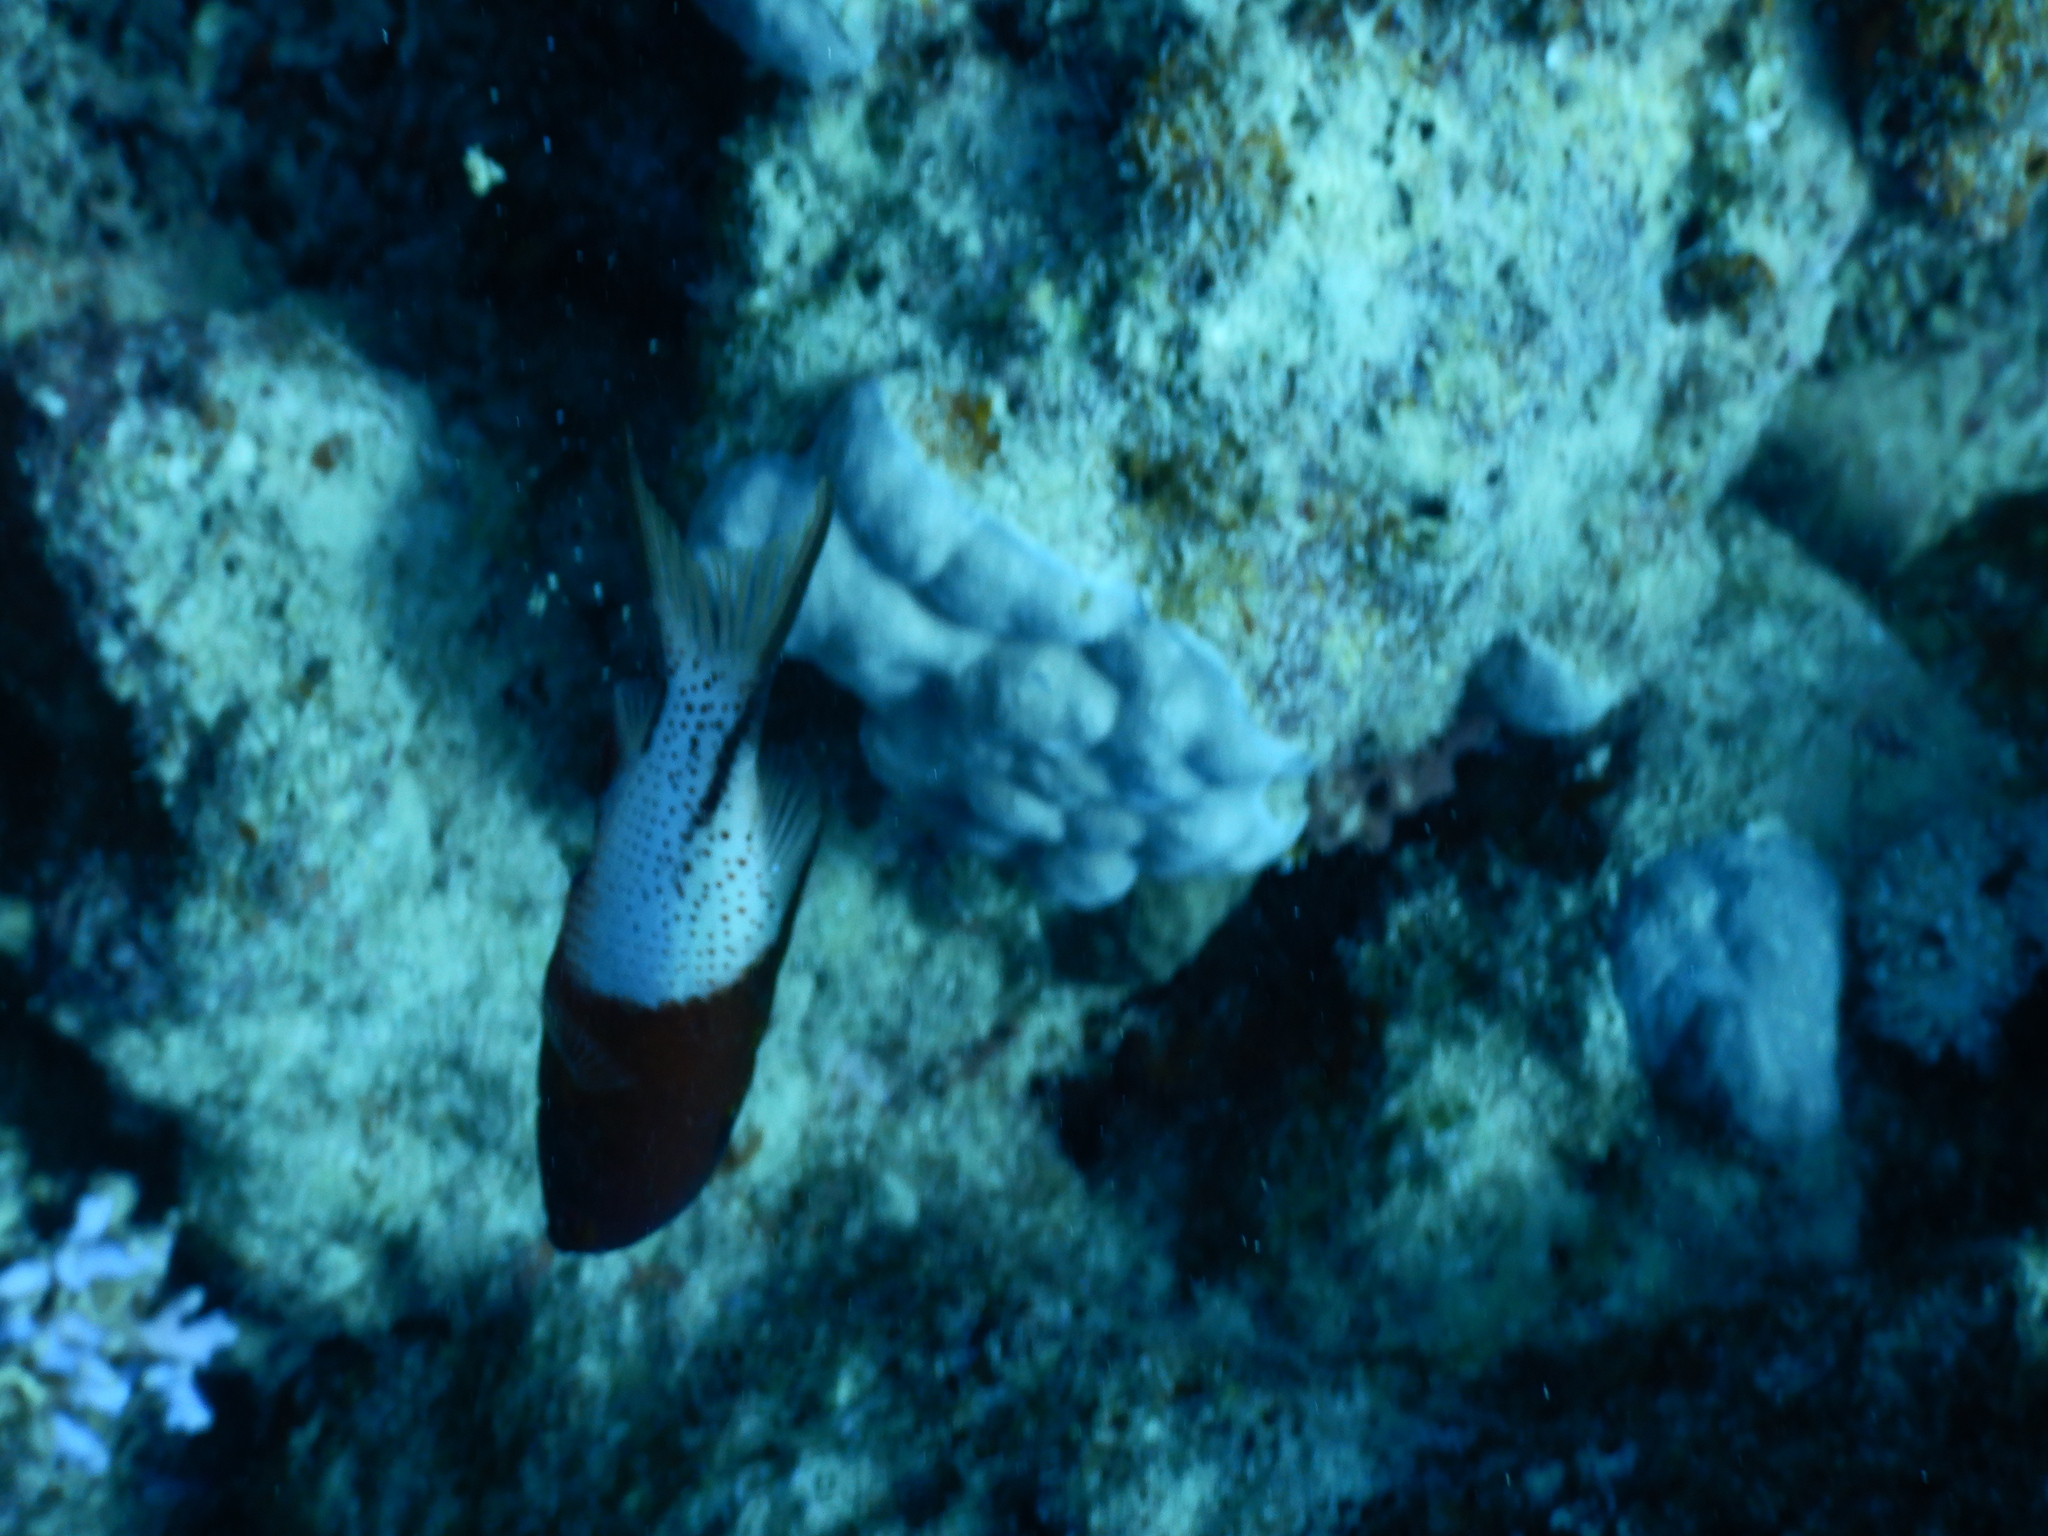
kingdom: Animalia
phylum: Chordata
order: Perciformes
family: Labridae
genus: Bodianus
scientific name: Bodianus anthioides
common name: Lyretail hogfish
